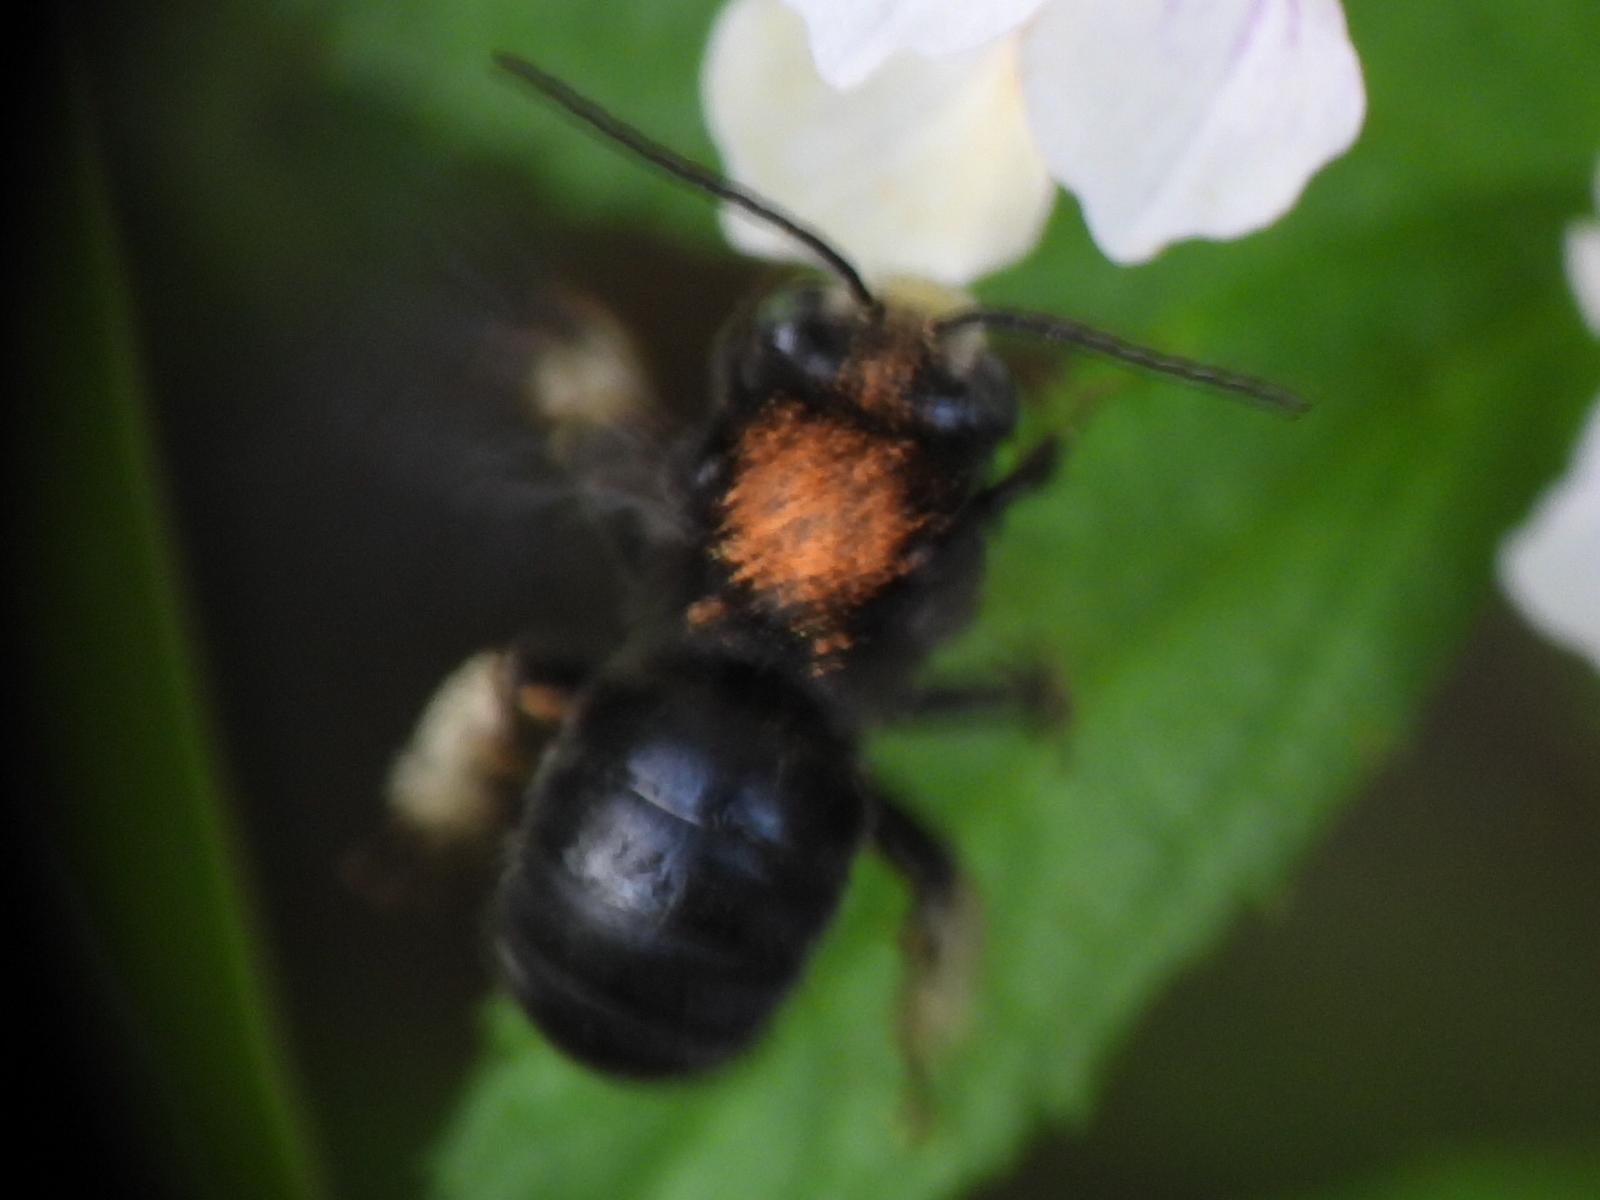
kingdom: Animalia
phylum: Arthropoda
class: Insecta
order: Hymenoptera
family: Apidae
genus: Melissodes
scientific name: Melissodes bimaculatus
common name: Two-spotted long-horned bee
